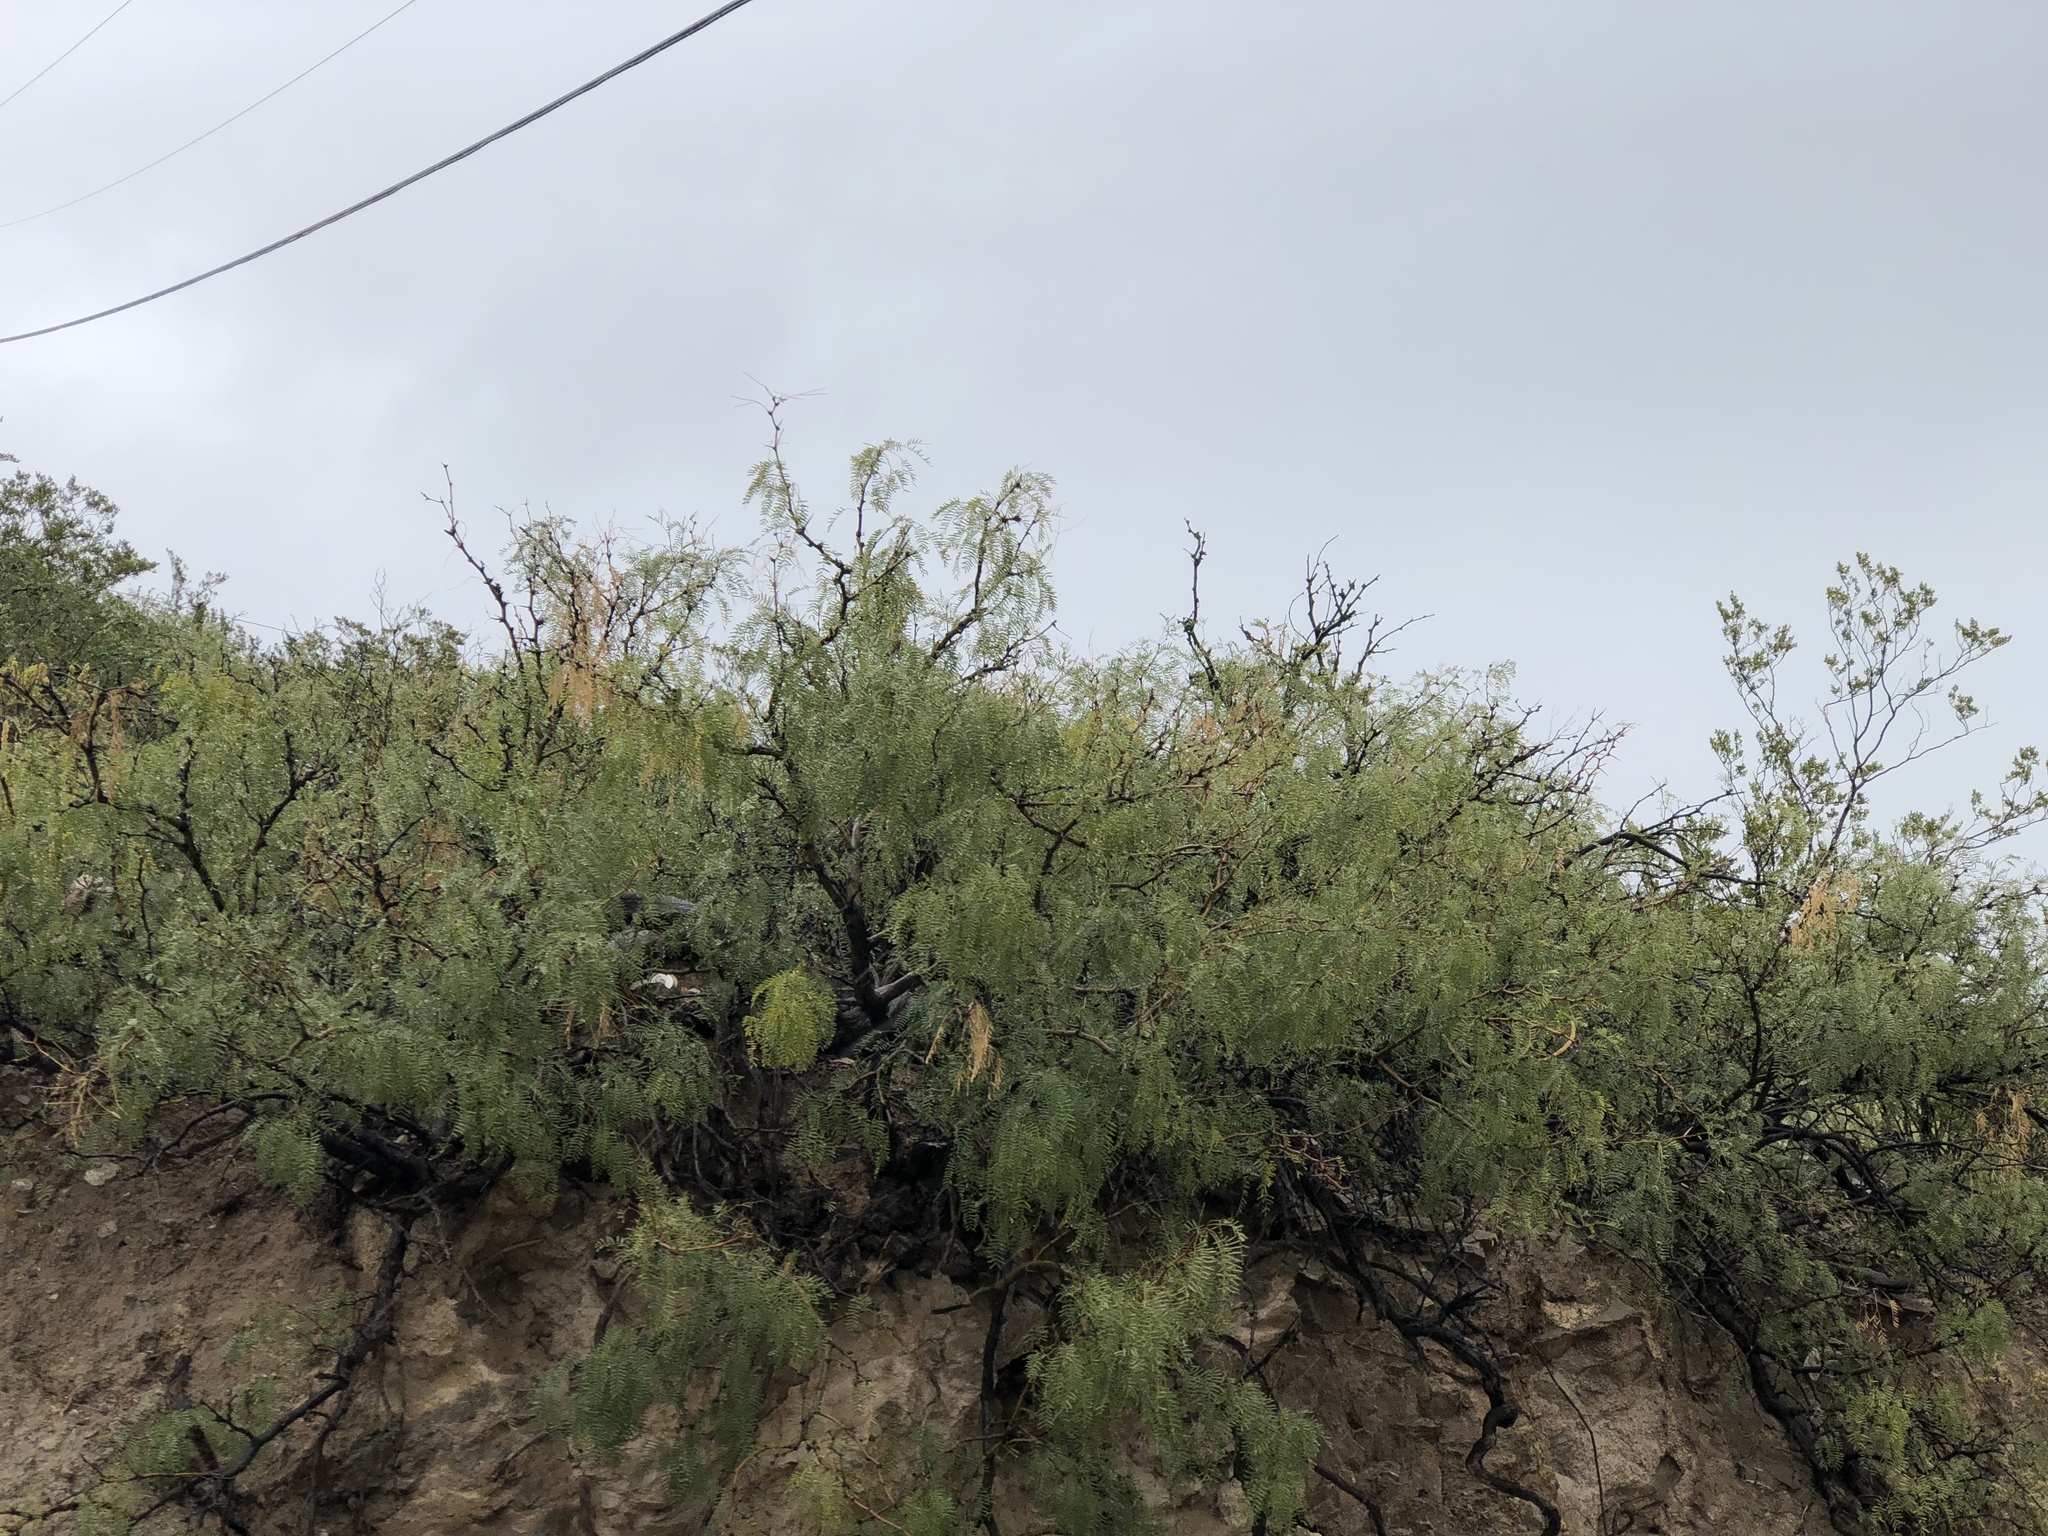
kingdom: Plantae
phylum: Tracheophyta
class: Magnoliopsida
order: Fabales
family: Fabaceae
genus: Prosopis
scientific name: Prosopis glandulosa
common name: Honey mesquite
